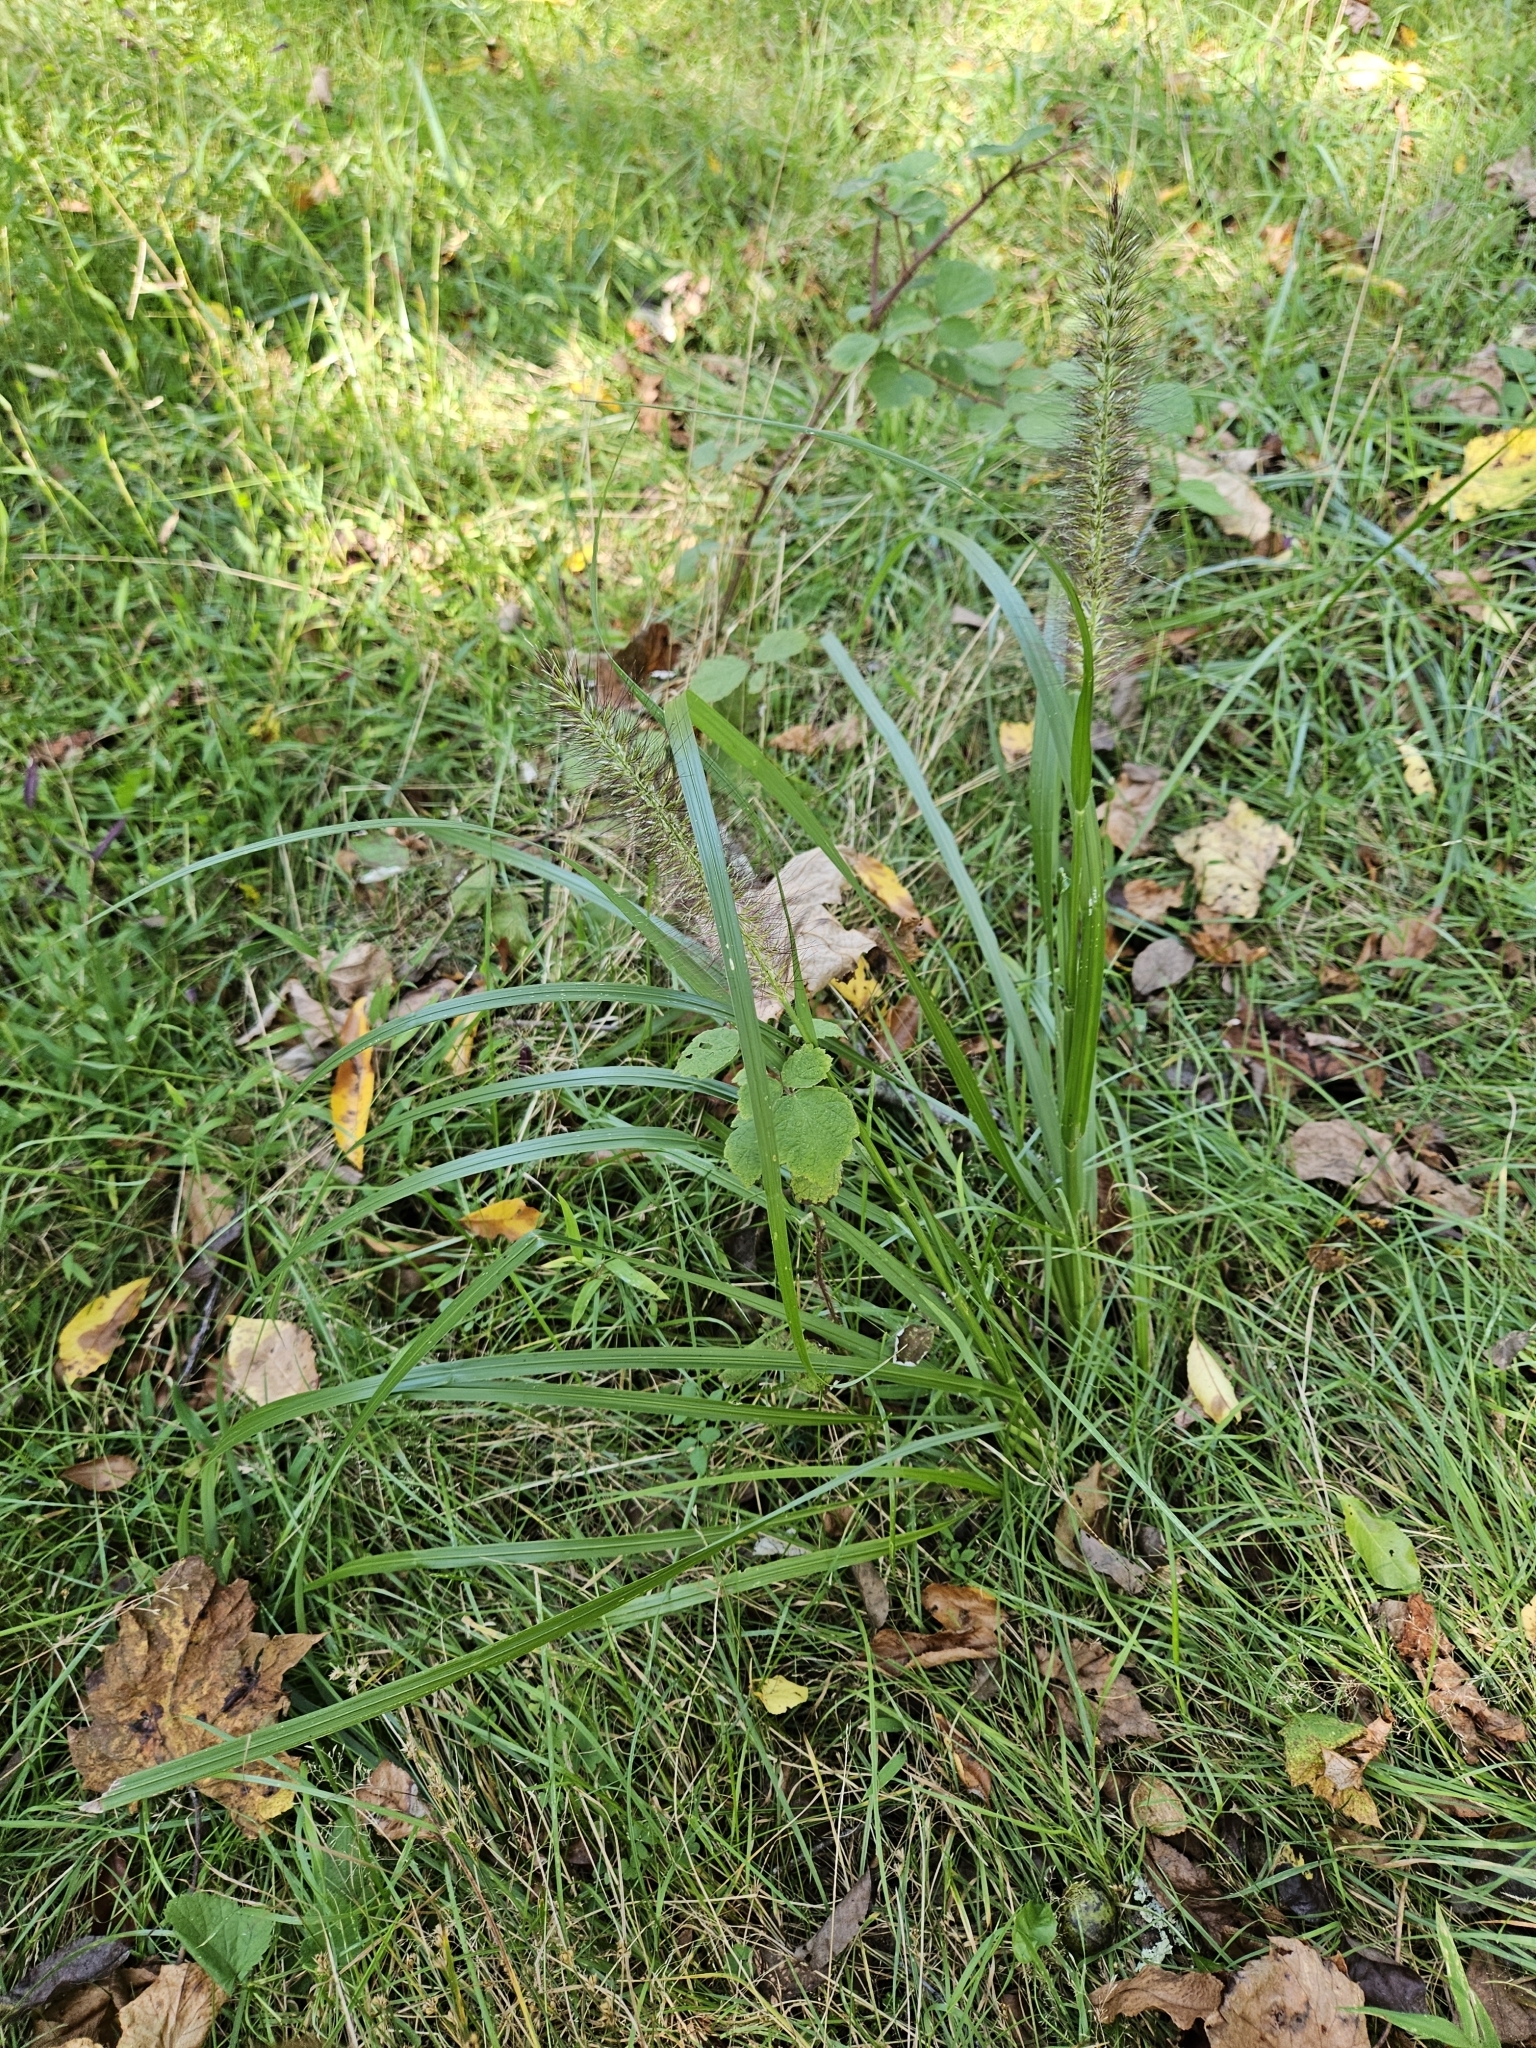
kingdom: Plantae
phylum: Tracheophyta
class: Liliopsida
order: Poales
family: Poaceae
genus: Cenchrus
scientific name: Cenchrus alopecuroides
